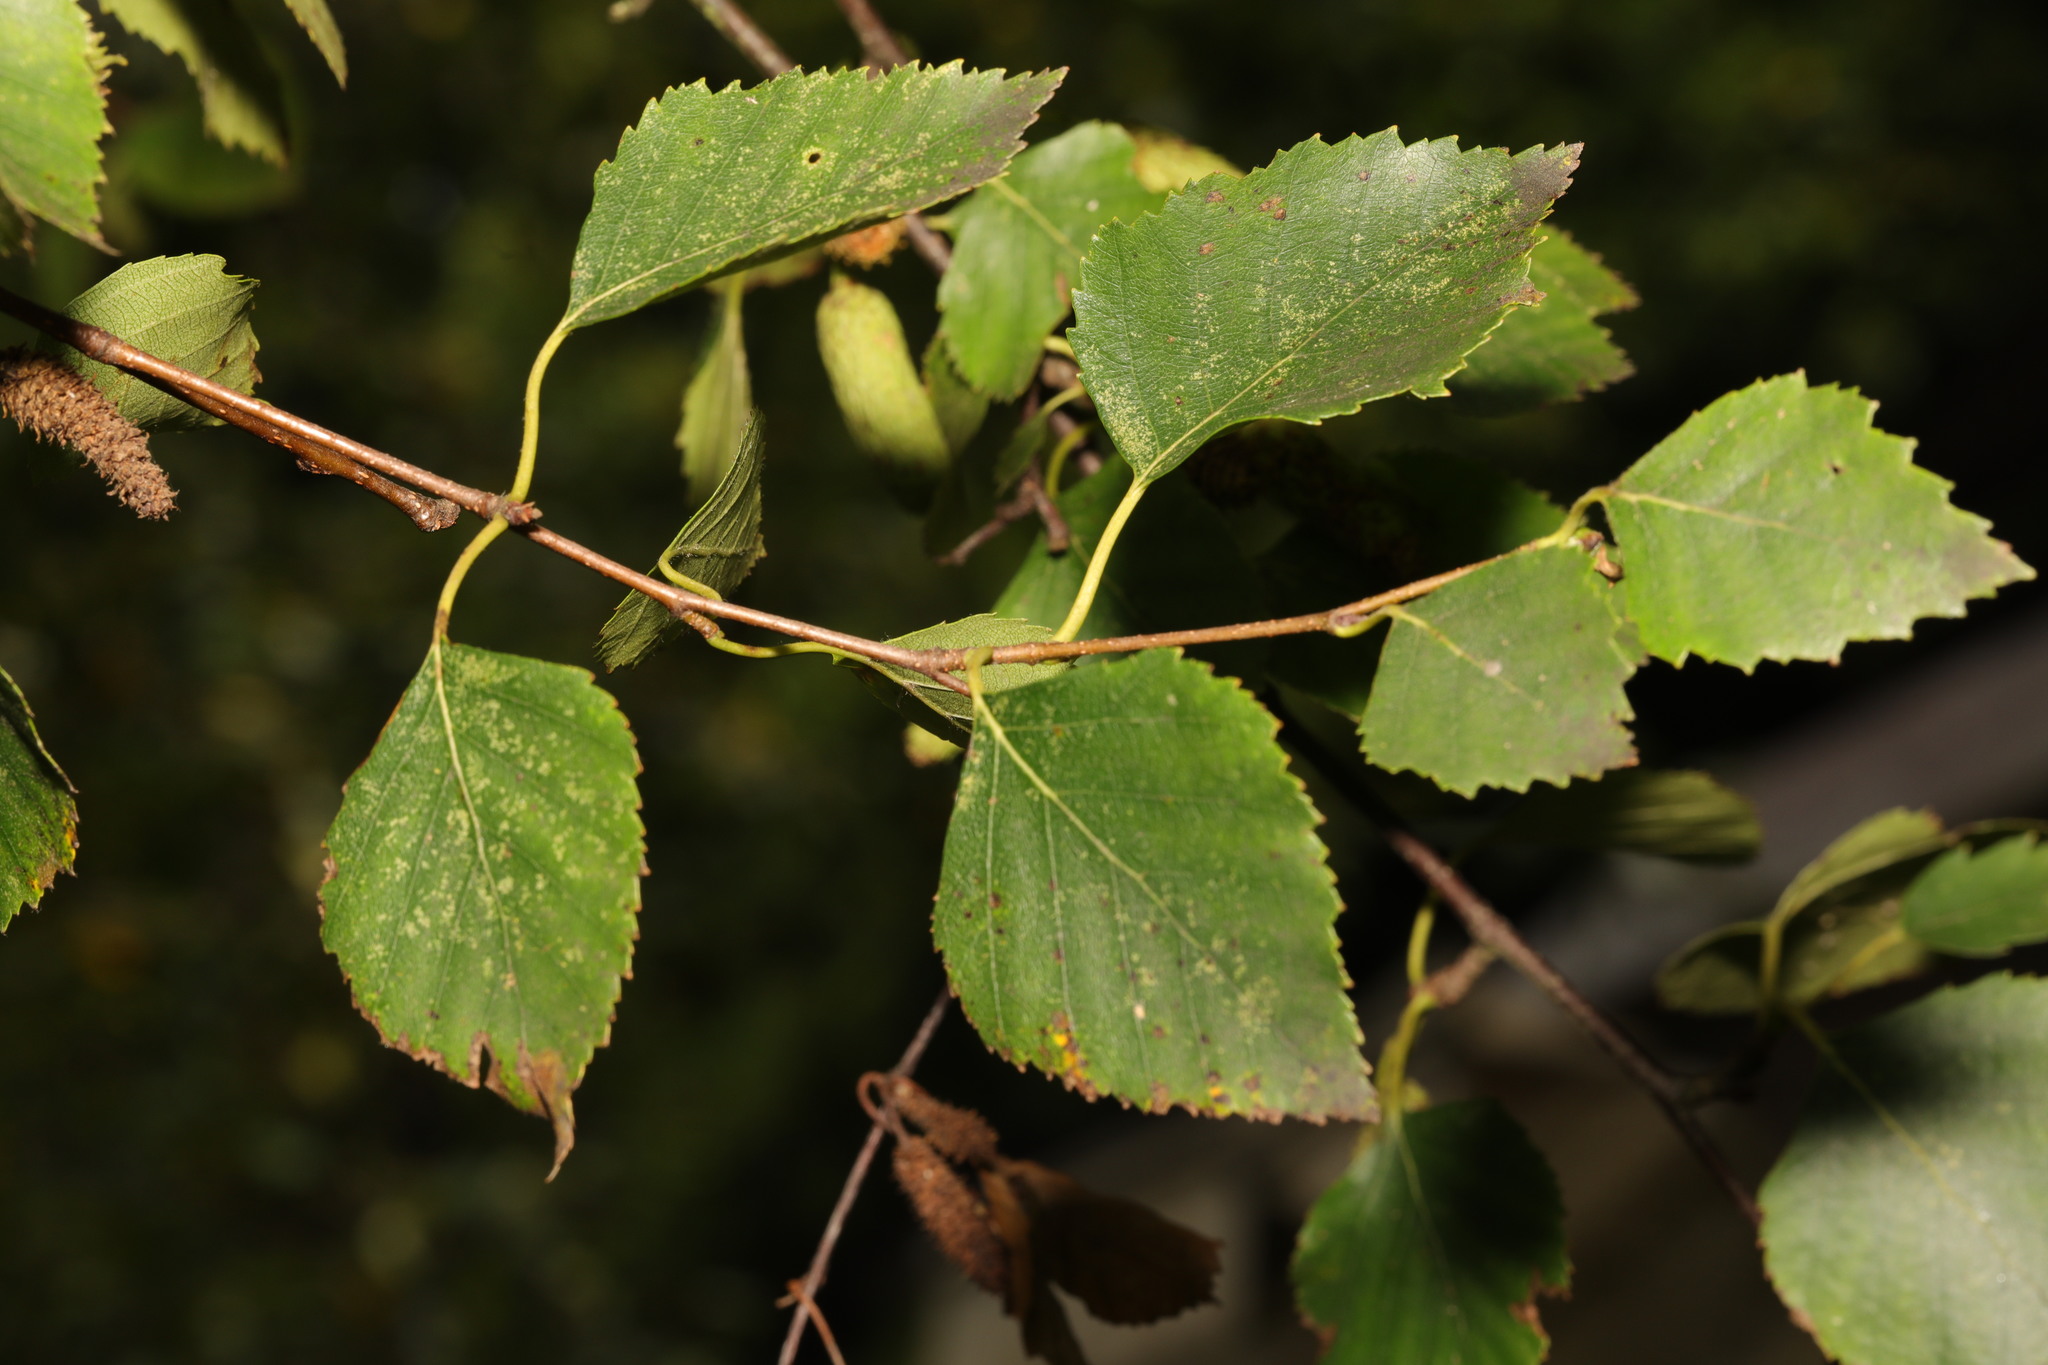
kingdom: Plantae
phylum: Tracheophyta
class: Magnoliopsida
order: Fagales
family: Betulaceae
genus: Betula
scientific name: Betula pendula
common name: Silver birch
